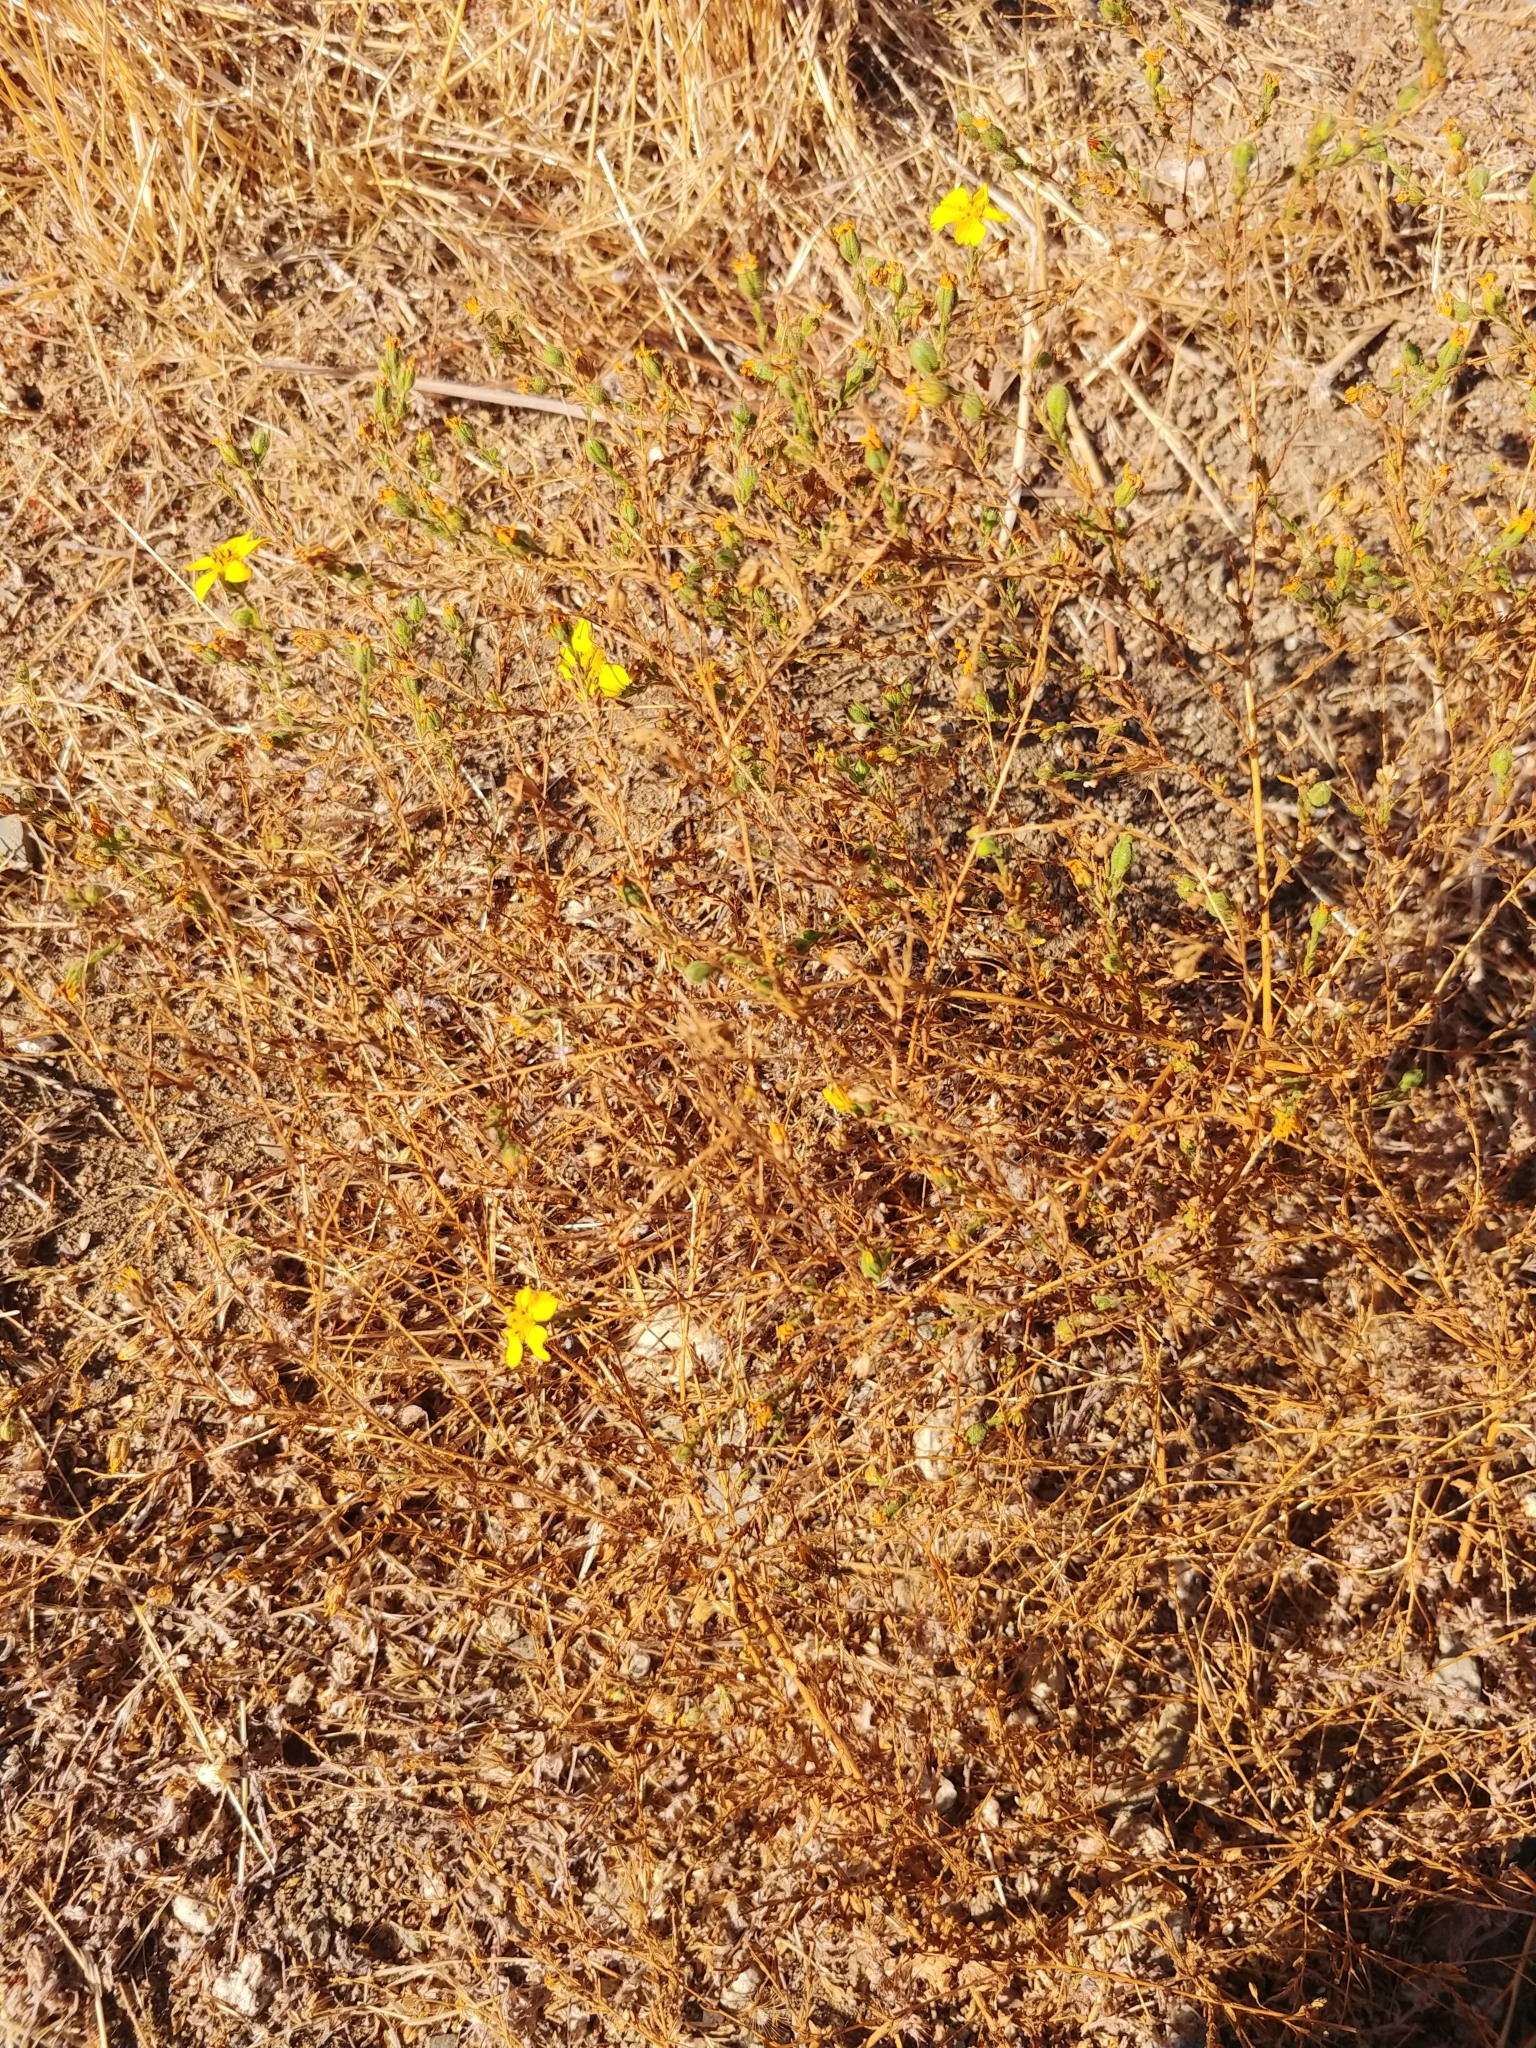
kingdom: Plantae
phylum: Tracheophyta
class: Magnoliopsida
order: Asterales
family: Asteraceae
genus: Deinandra
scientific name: Deinandra kelloggii
